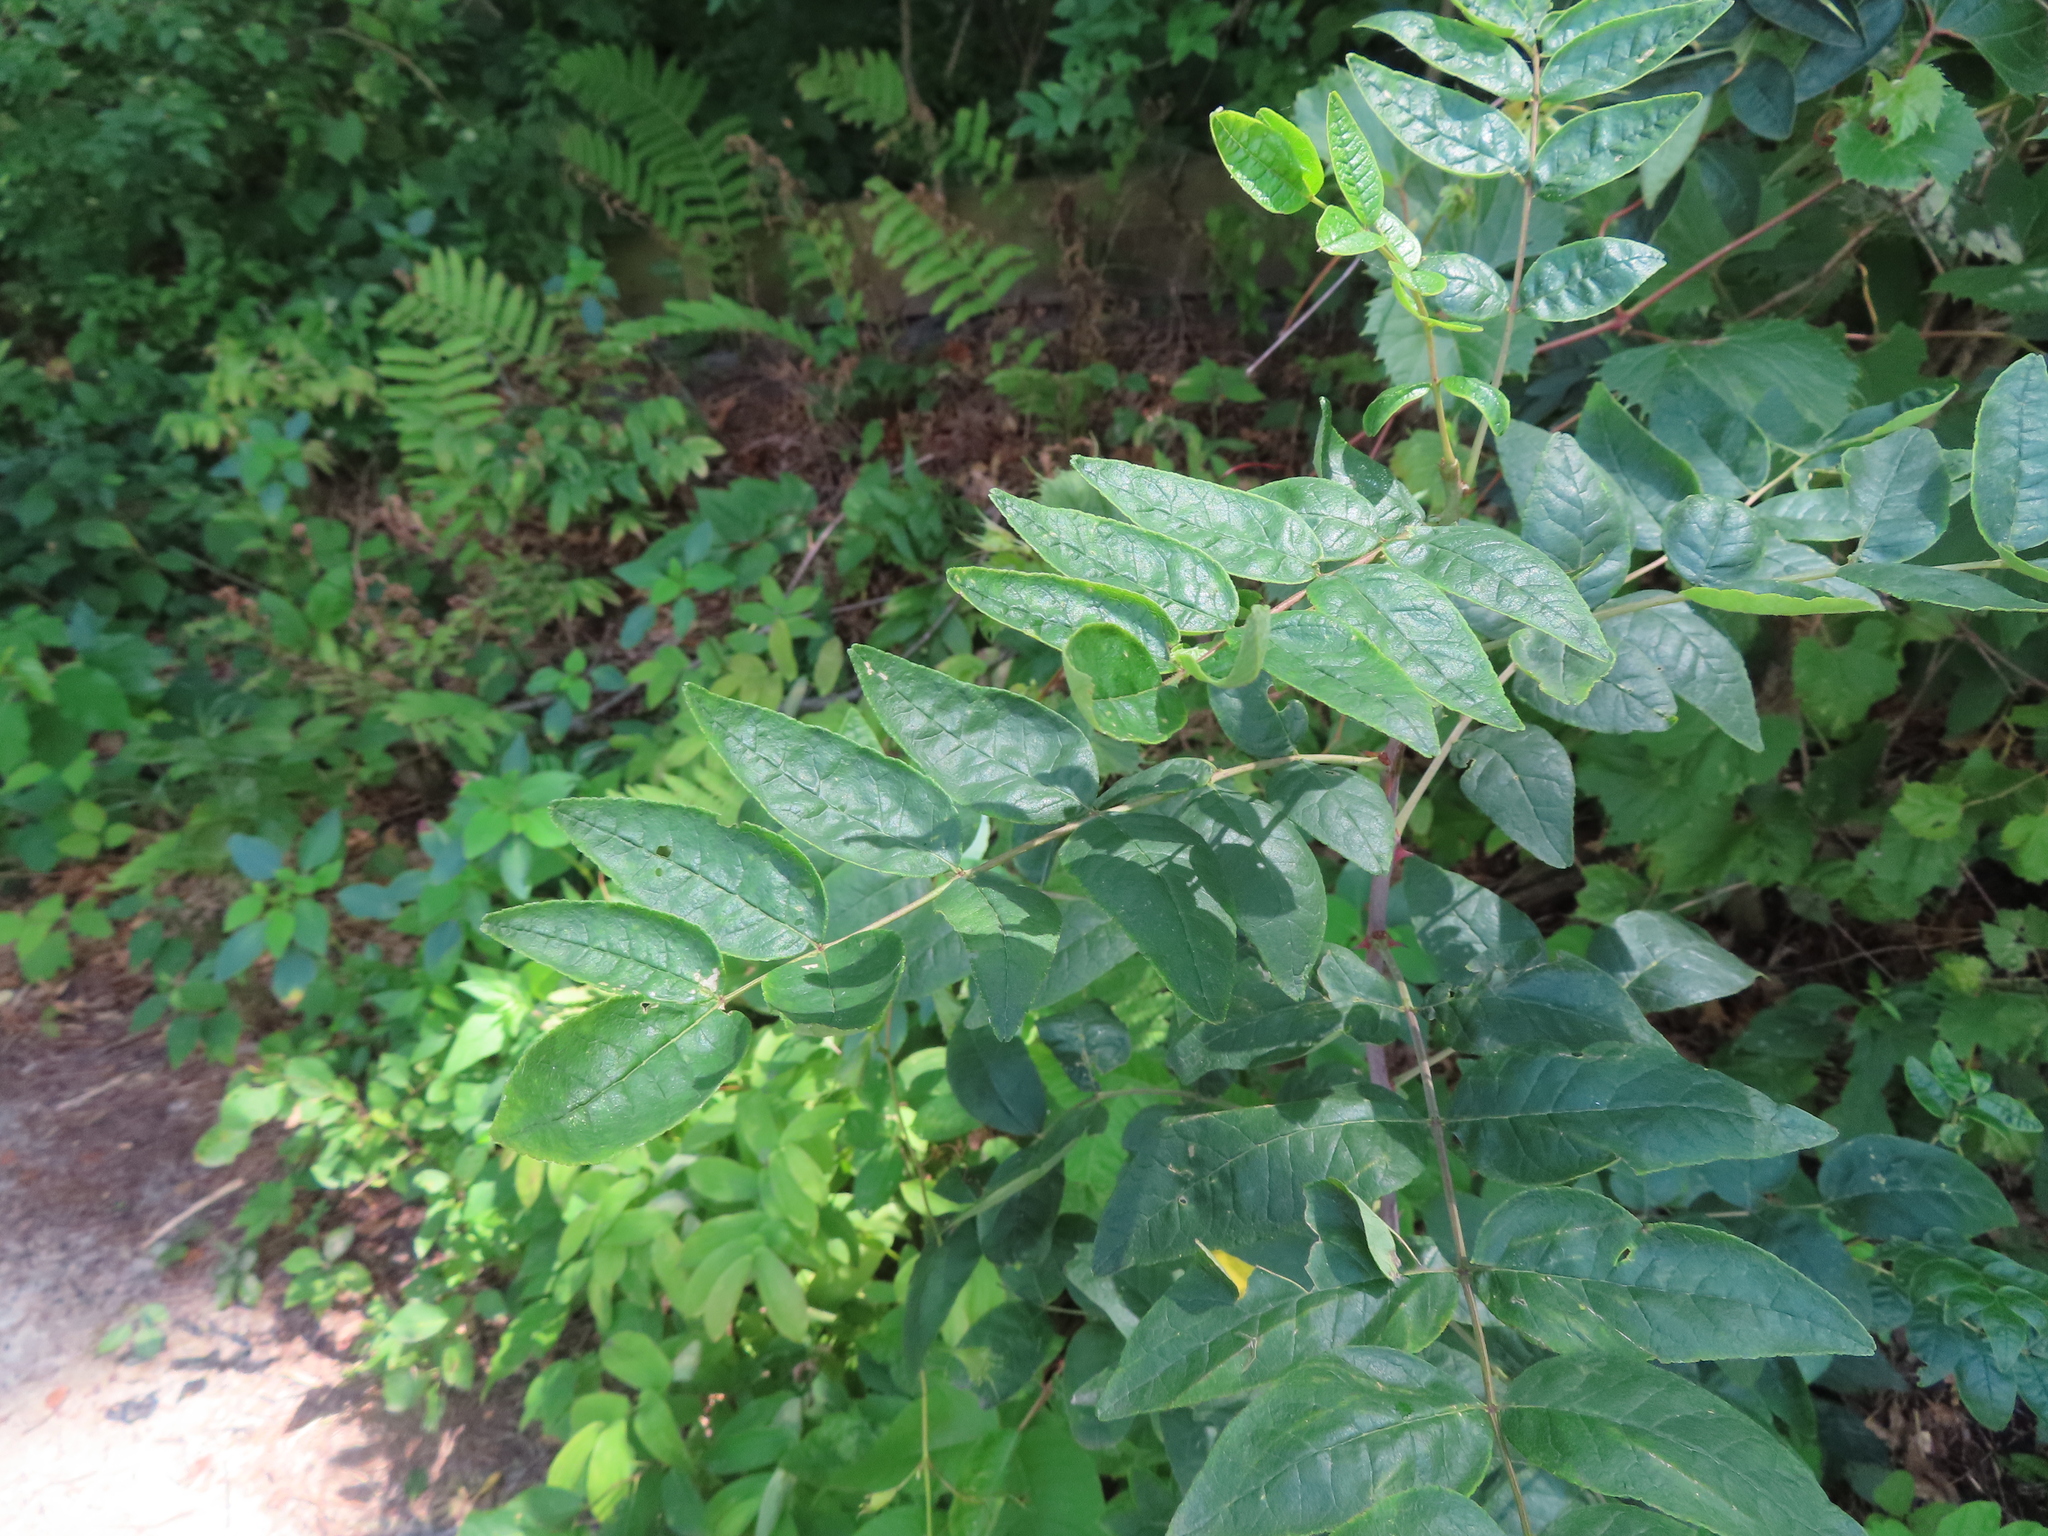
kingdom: Plantae
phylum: Tracheophyta
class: Magnoliopsida
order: Sapindales
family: Rutaceae
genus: Zanthoxylum
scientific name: Zanthoxylum americanum
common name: Northern prickly-ash
